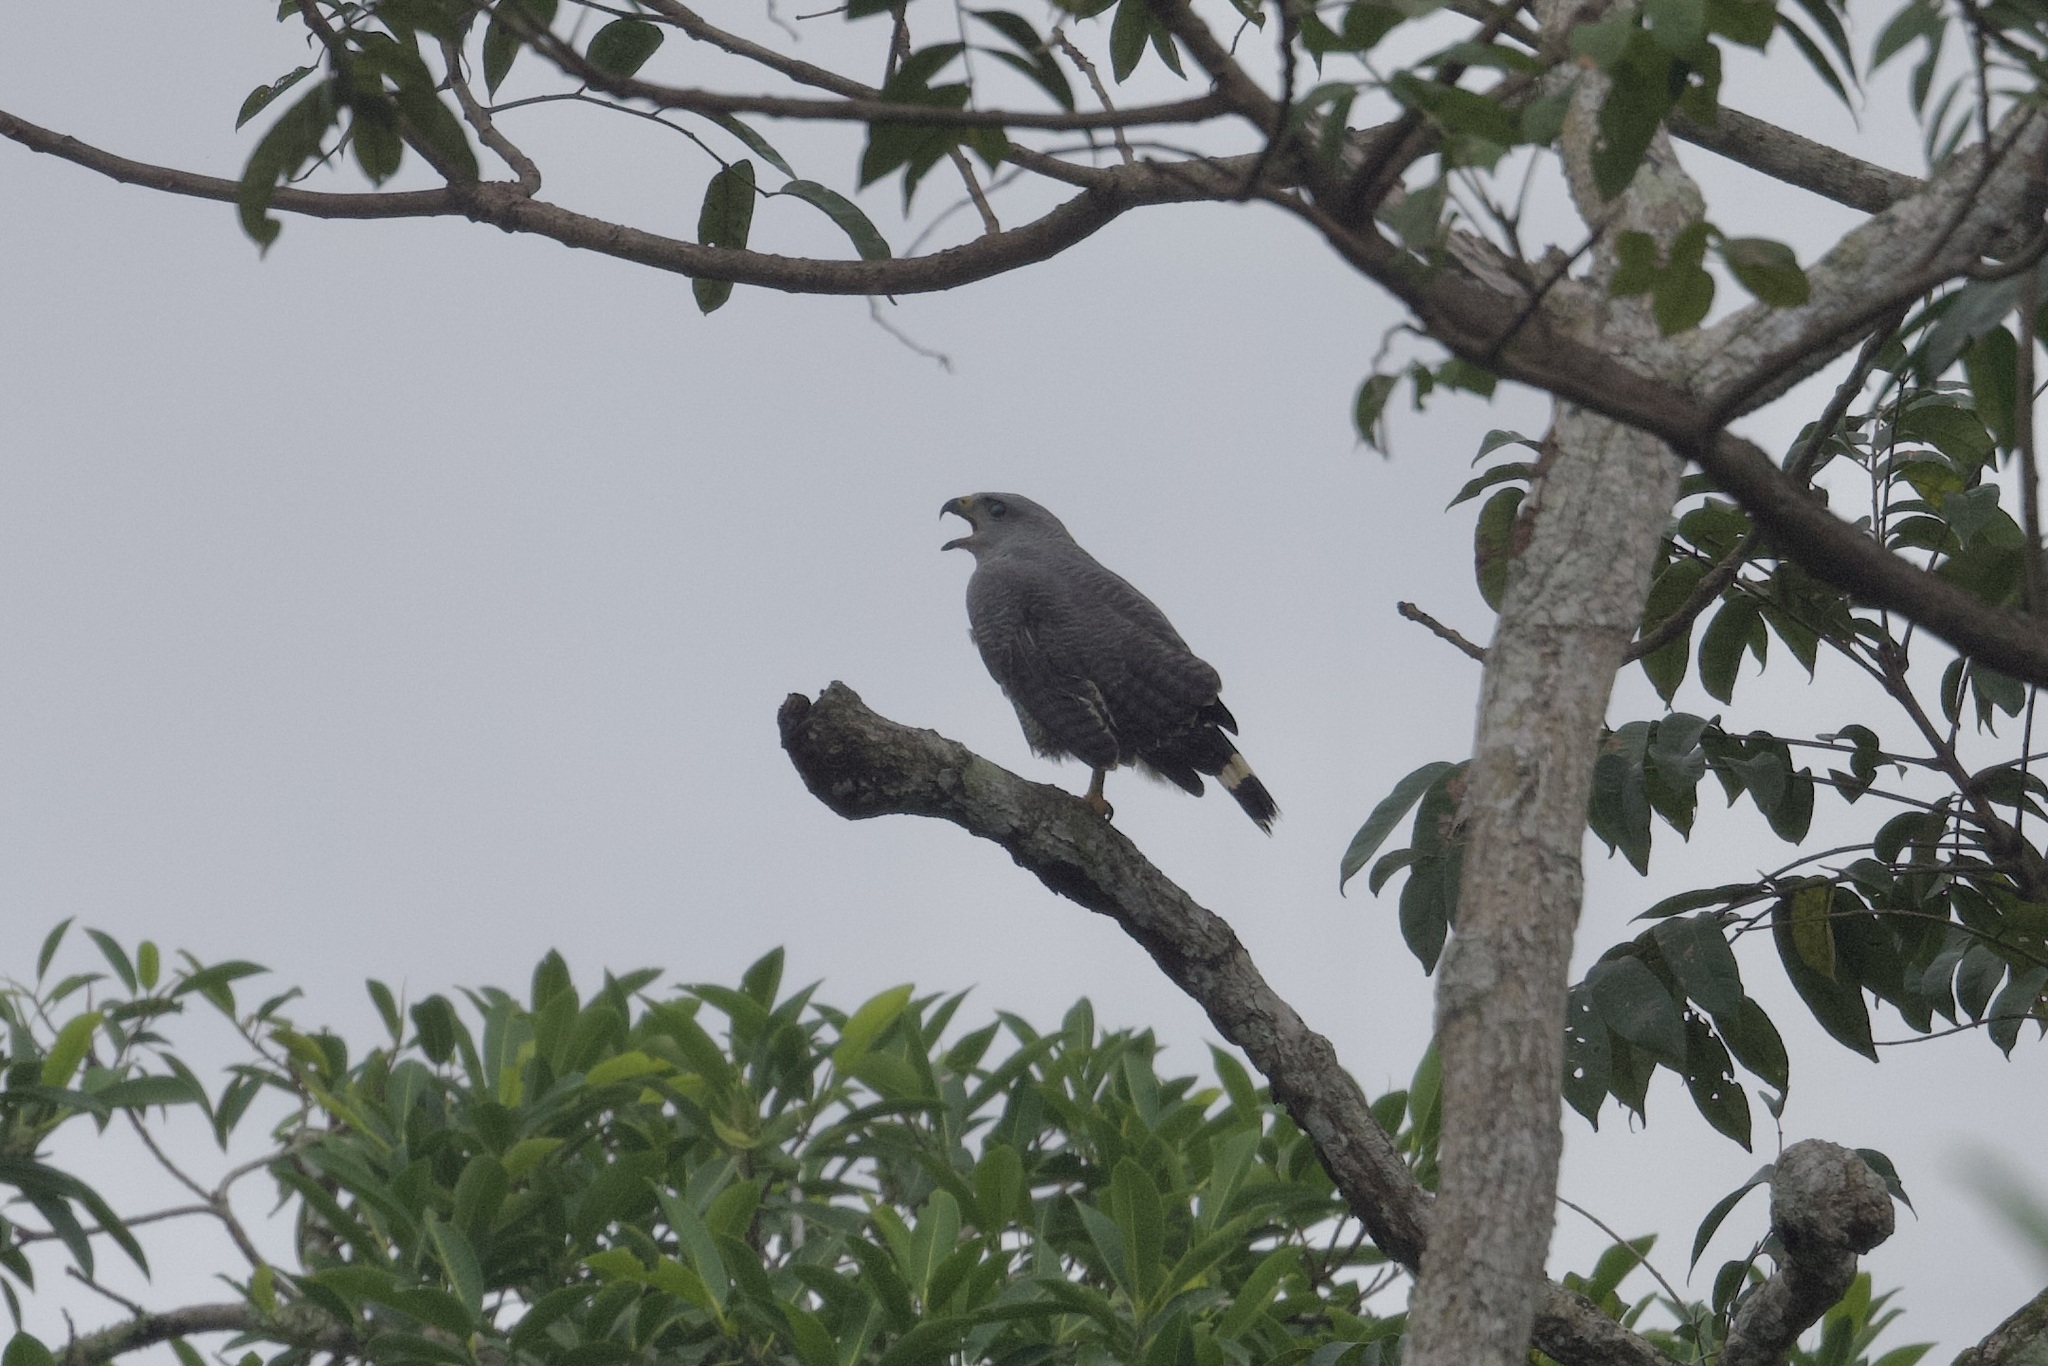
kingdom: Animalia
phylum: Chordata
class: Aves
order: Accipitriformes
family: Accipitridae
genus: Buteo
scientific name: Buteo nitidus
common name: Grey-lined hawk
